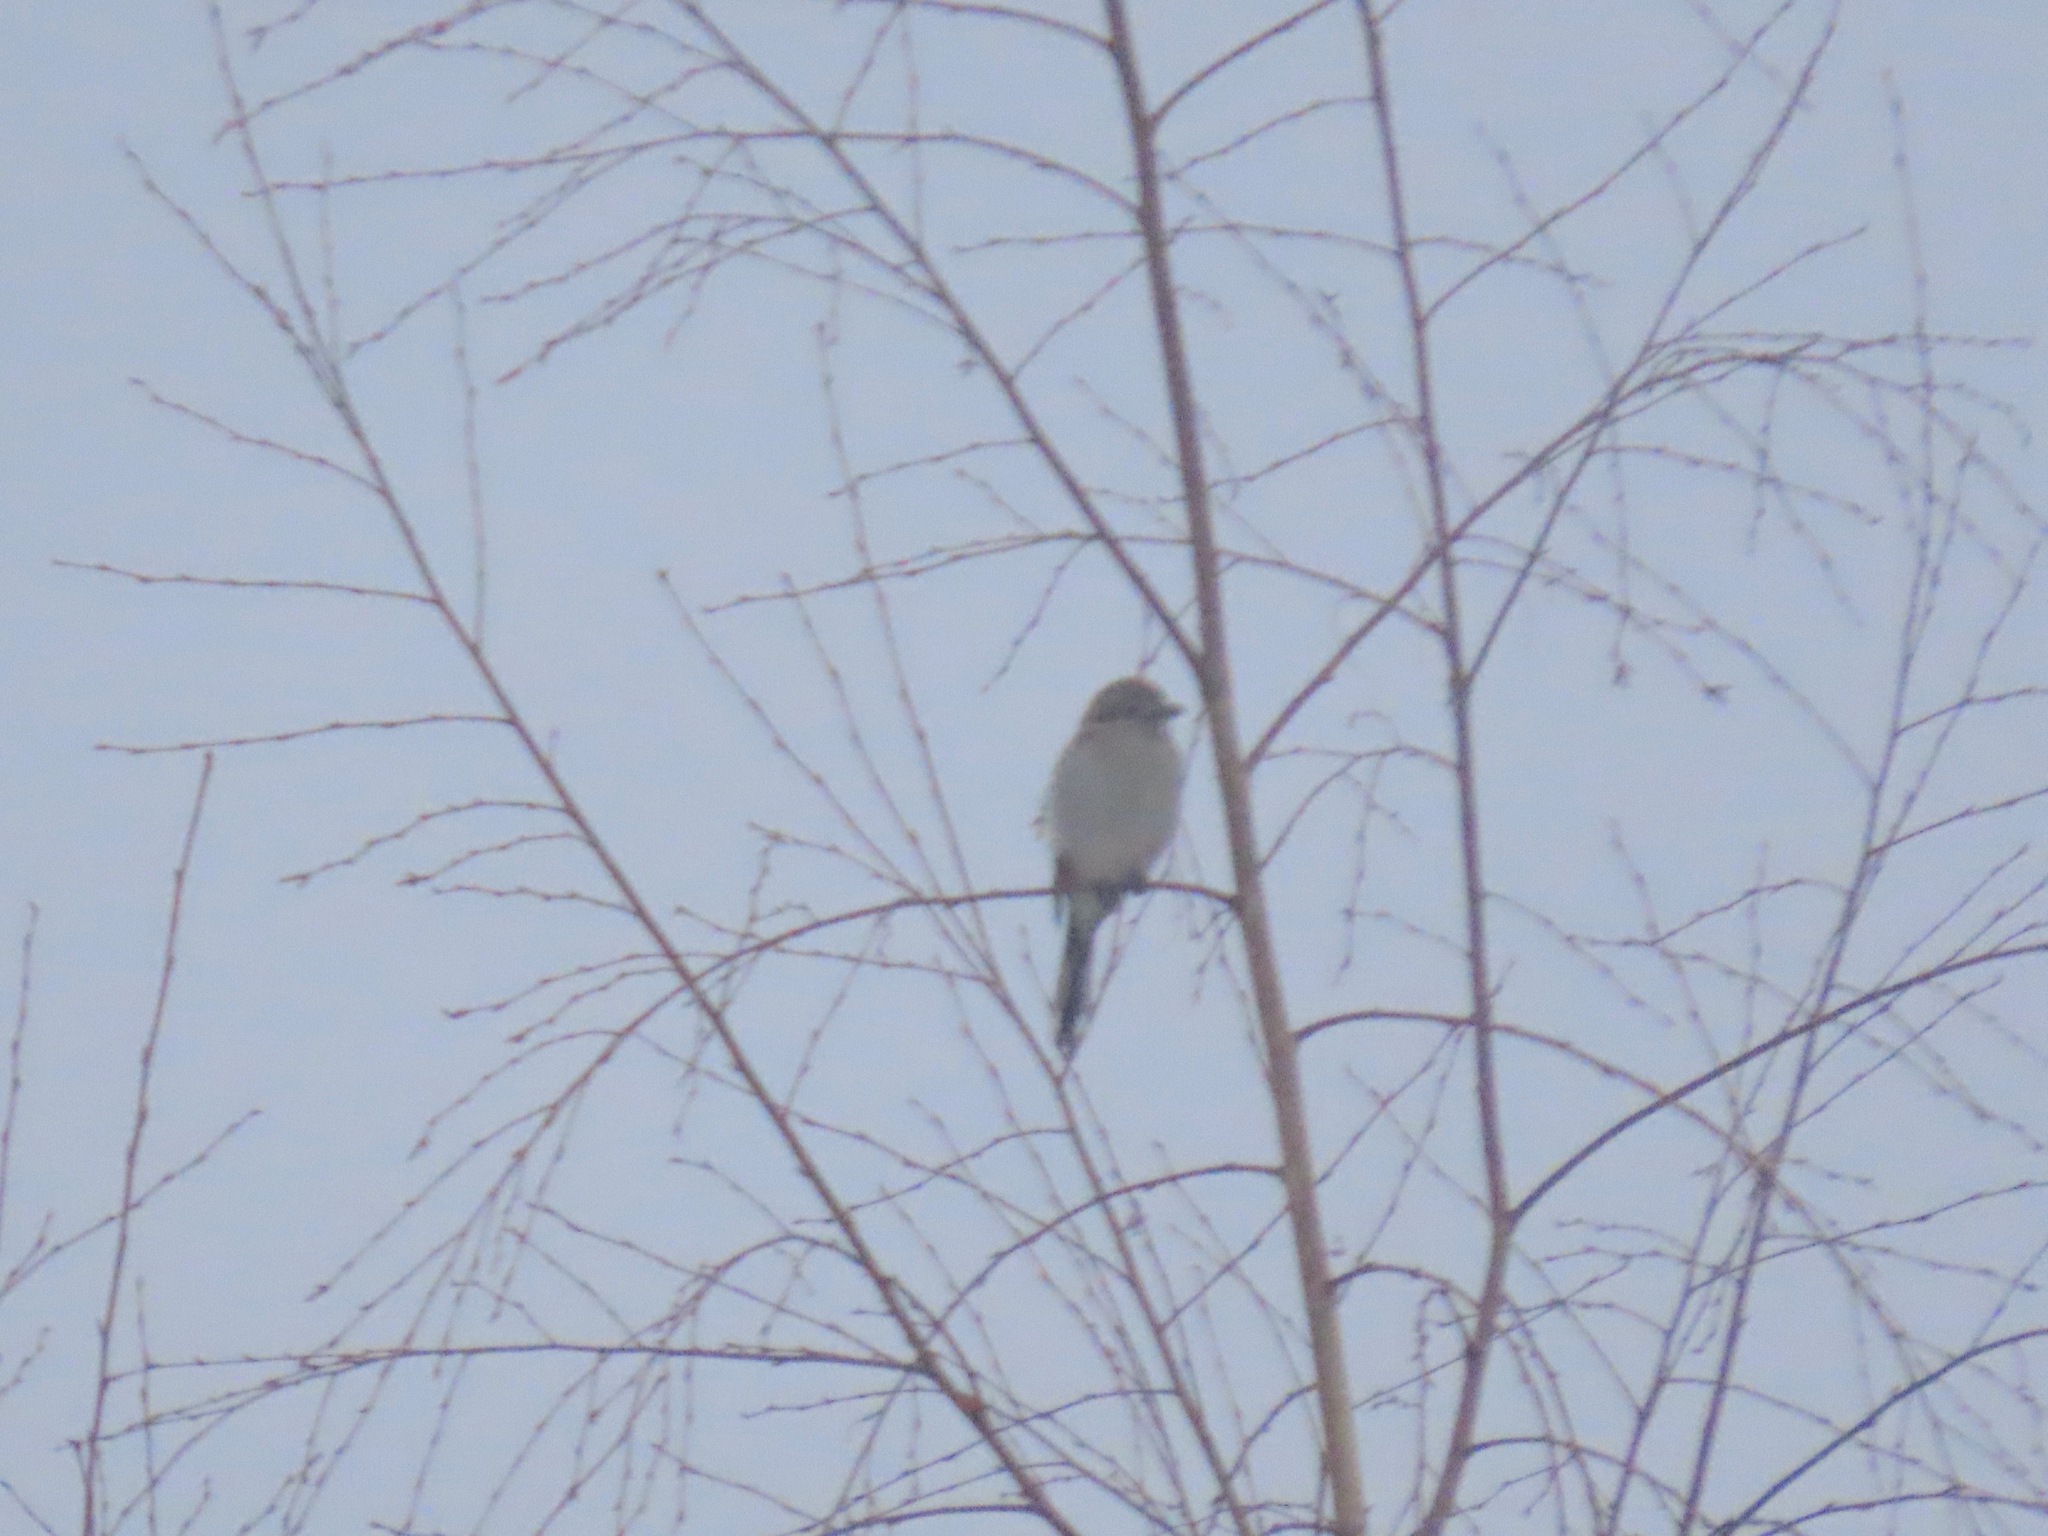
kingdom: Animalia
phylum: Chordata
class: Aves
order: Passeriformes
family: Laniidae
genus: Lanius
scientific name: Lanius borealis
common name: Northern shrike
